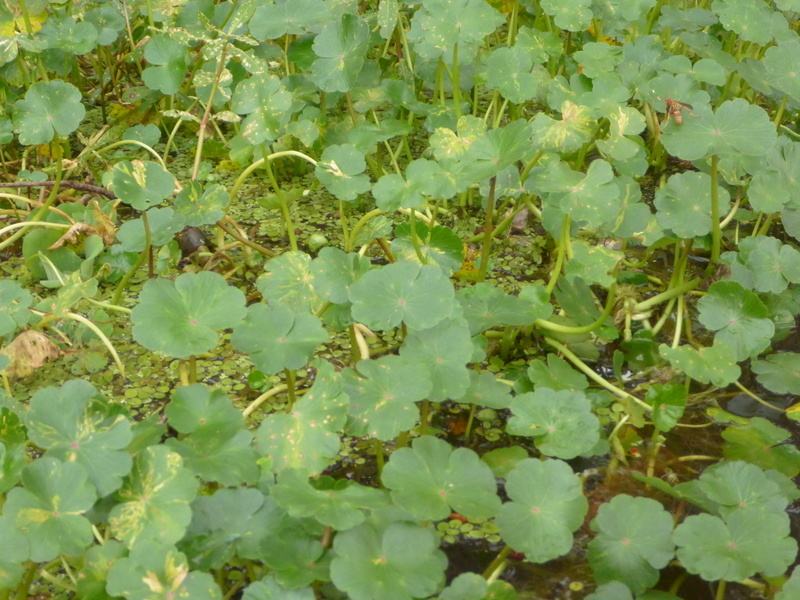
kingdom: Plantae
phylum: Tracheophyta
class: Magnoliopsida
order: Apiales
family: Araliaceae
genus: Hydrocotyle
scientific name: Hydrocotyle ranunculoides
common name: Floating pennywort
